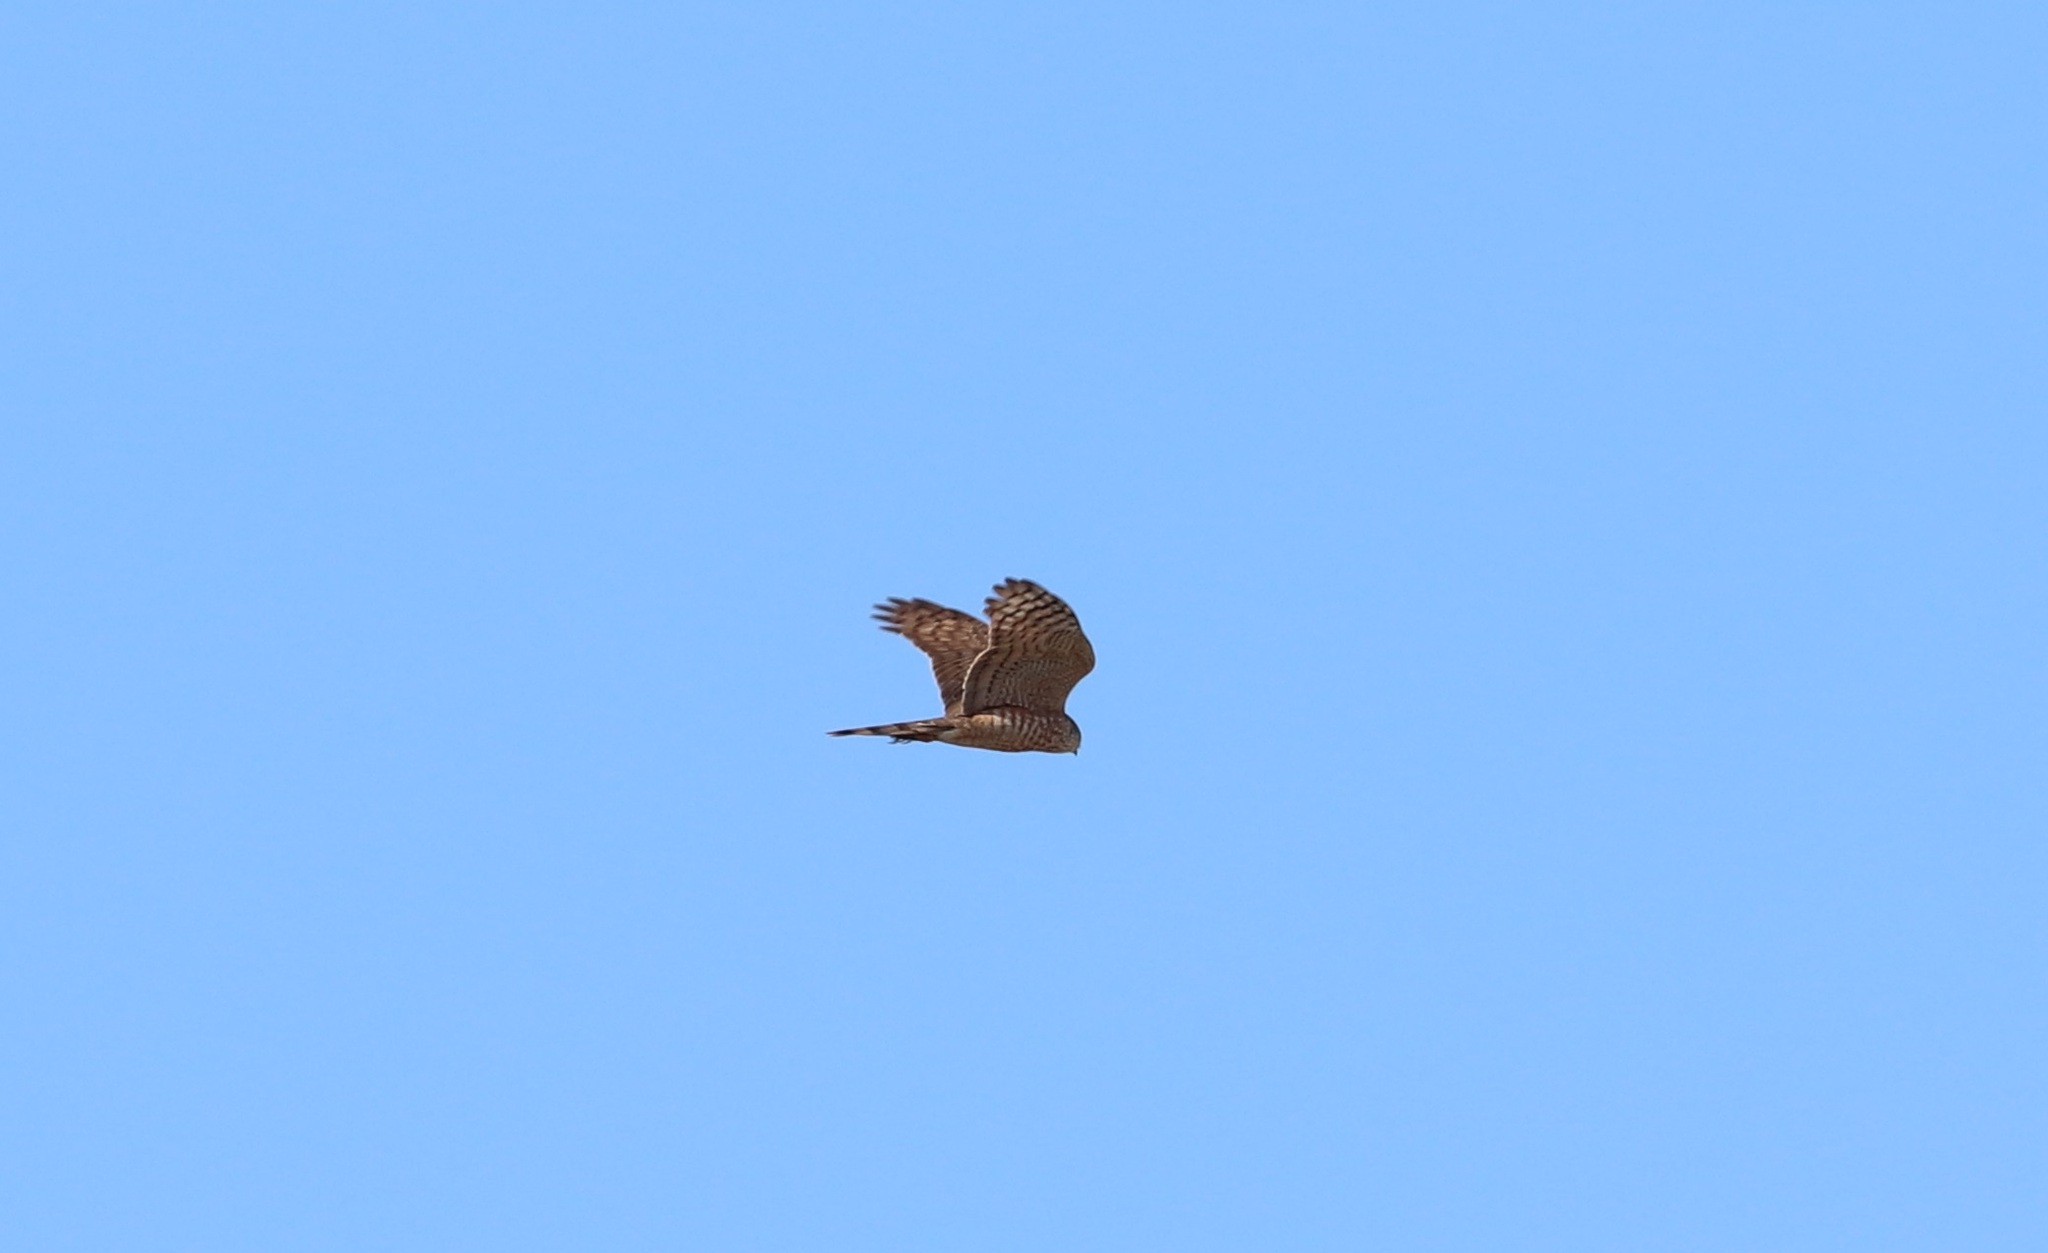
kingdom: Animalia
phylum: Chordata
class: Aves
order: Accipitriformes
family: Accipitridae
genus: Accipiter
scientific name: Accipiter nisus
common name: Eurasian sparrowhawk
